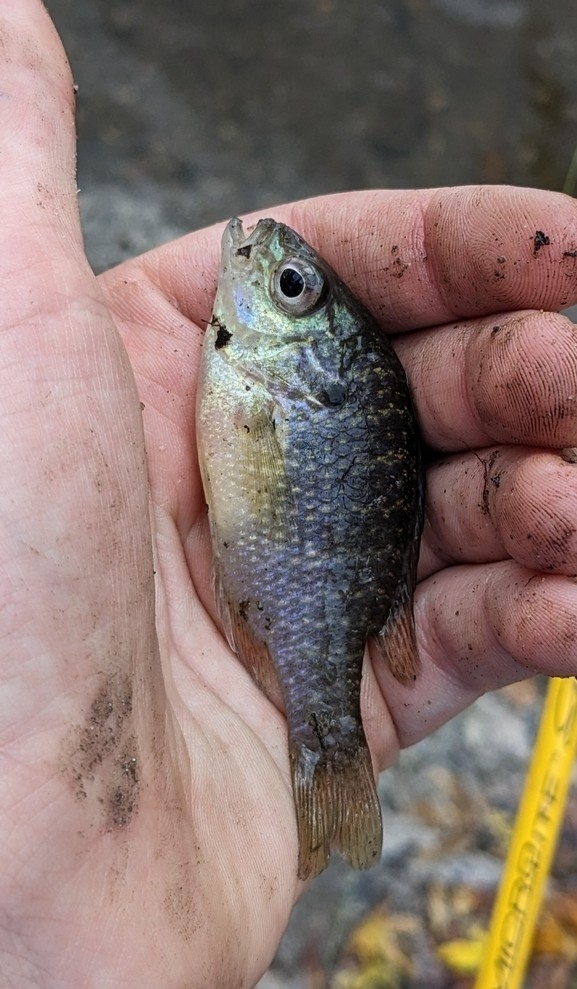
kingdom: Animalia
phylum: Chordata
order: Perciformes
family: Centrarchidae
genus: Lepomis
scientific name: Lepomis peltastes
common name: Northern sunfish
